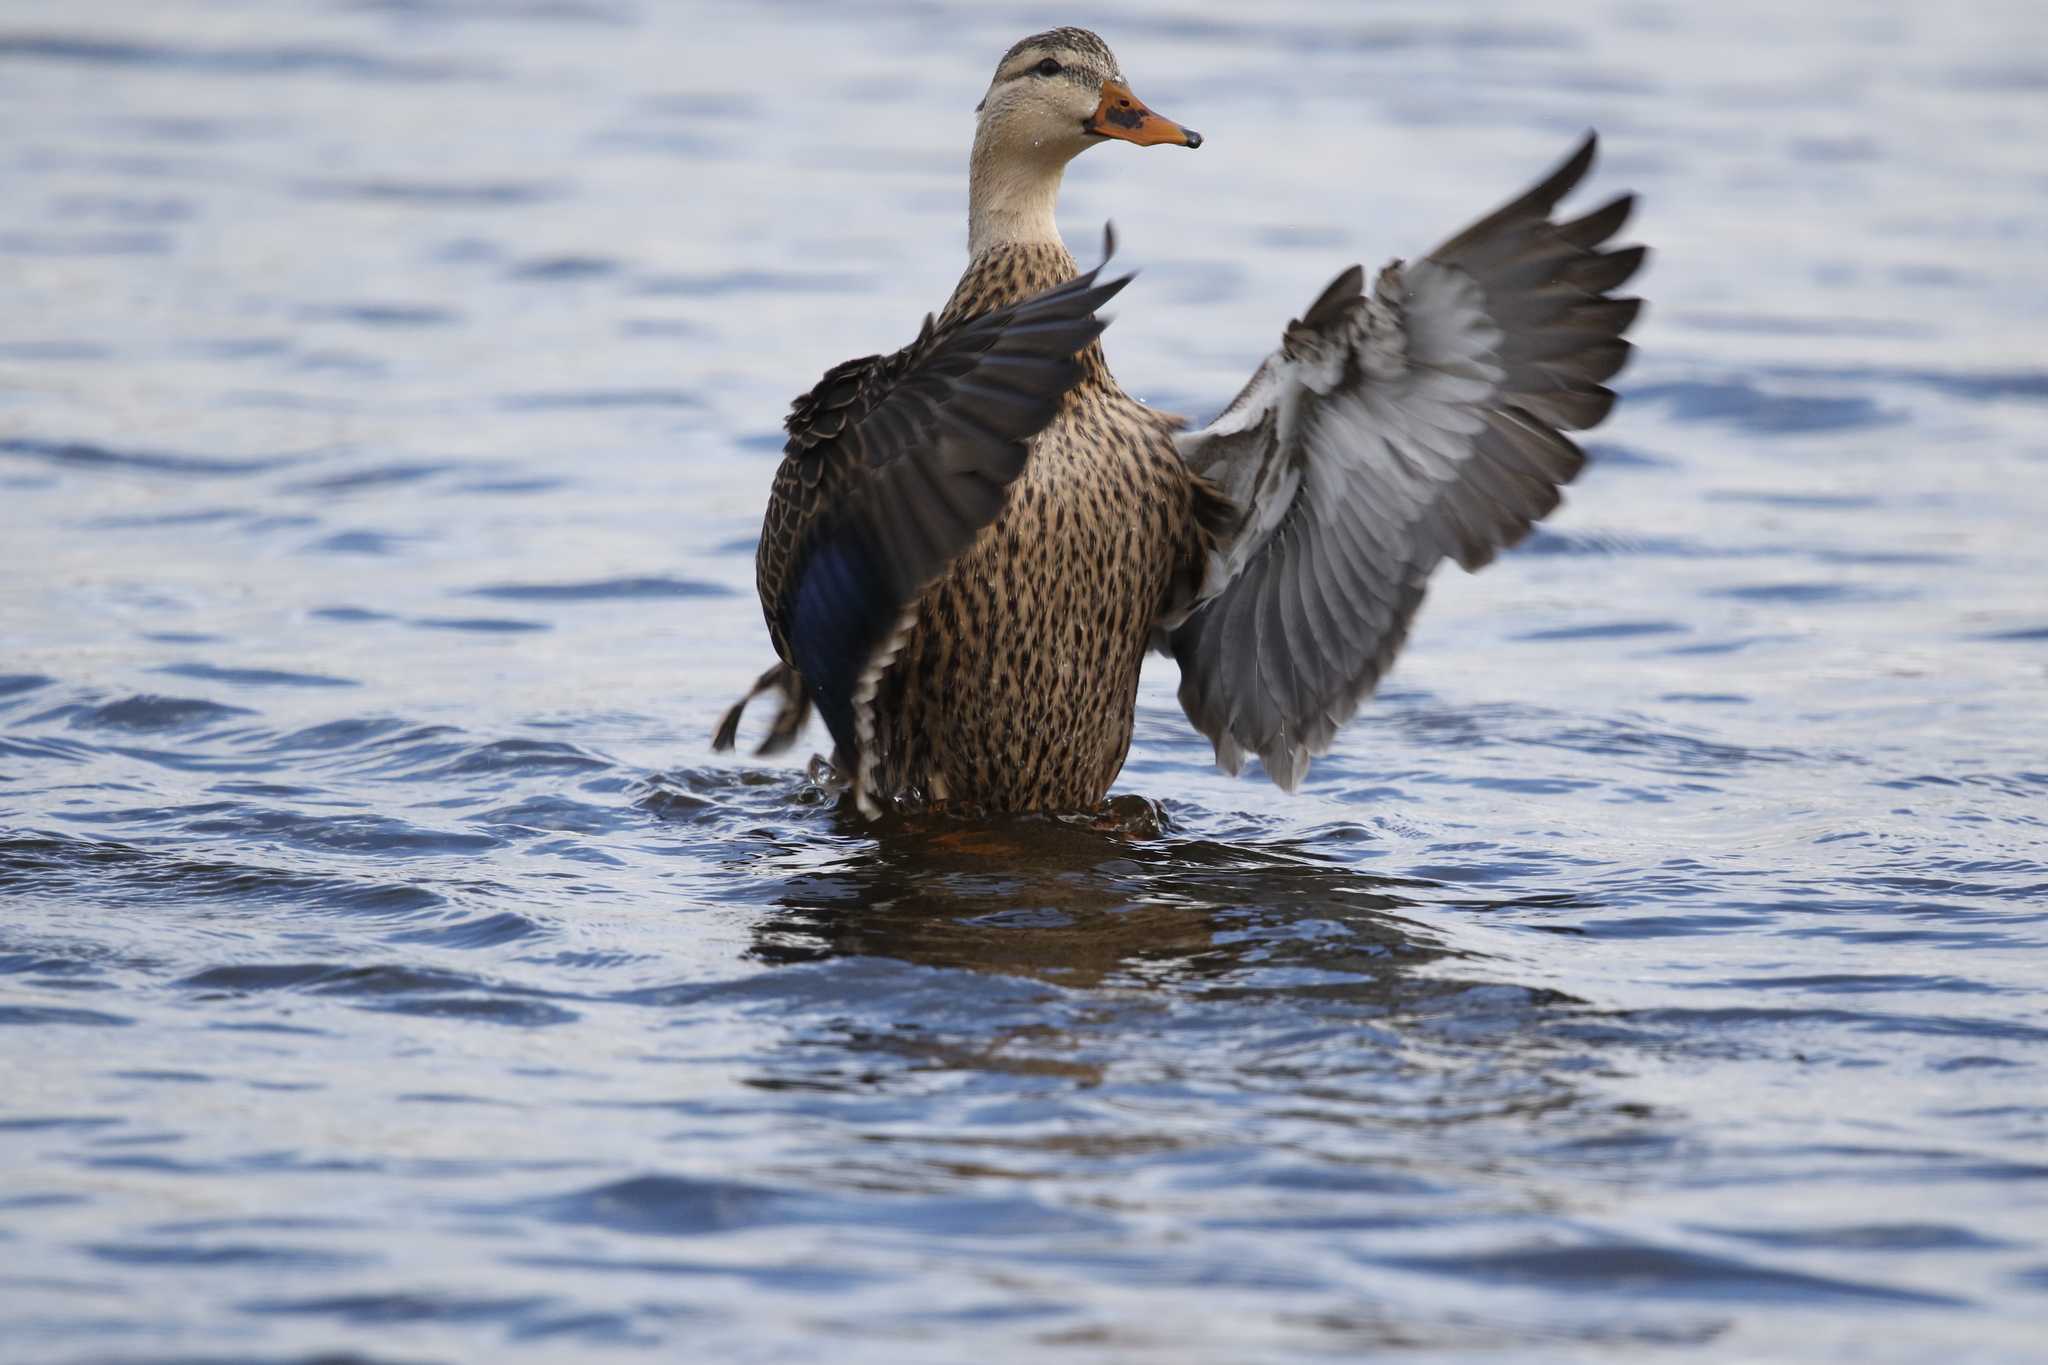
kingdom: Animalia
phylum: Chordata
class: Aves
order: Anseriformes
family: Anatidae
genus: Anas
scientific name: Anas fulvigula
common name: Mottled duck
